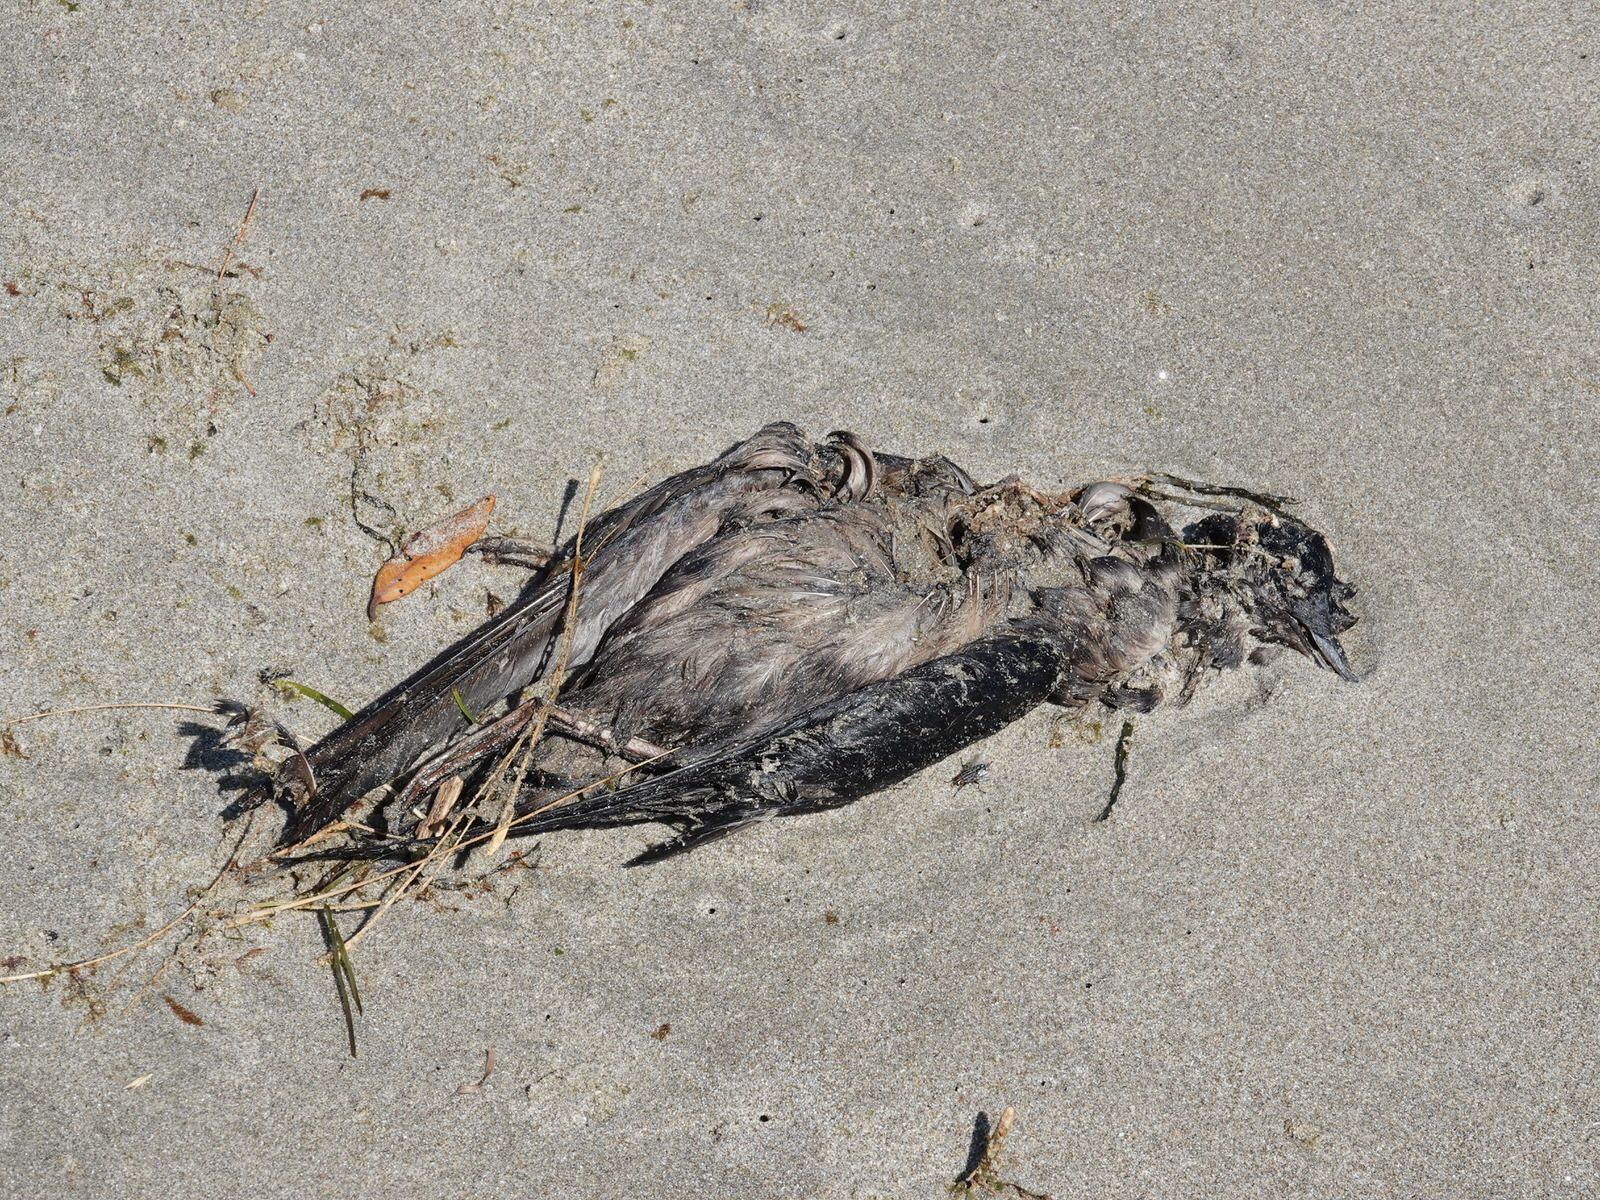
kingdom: Animalia
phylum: Chordata
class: Aves
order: Procellariiformes
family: Procellariidae
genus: Puffinus
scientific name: Puffinus griseus
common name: Sooty shearwater
